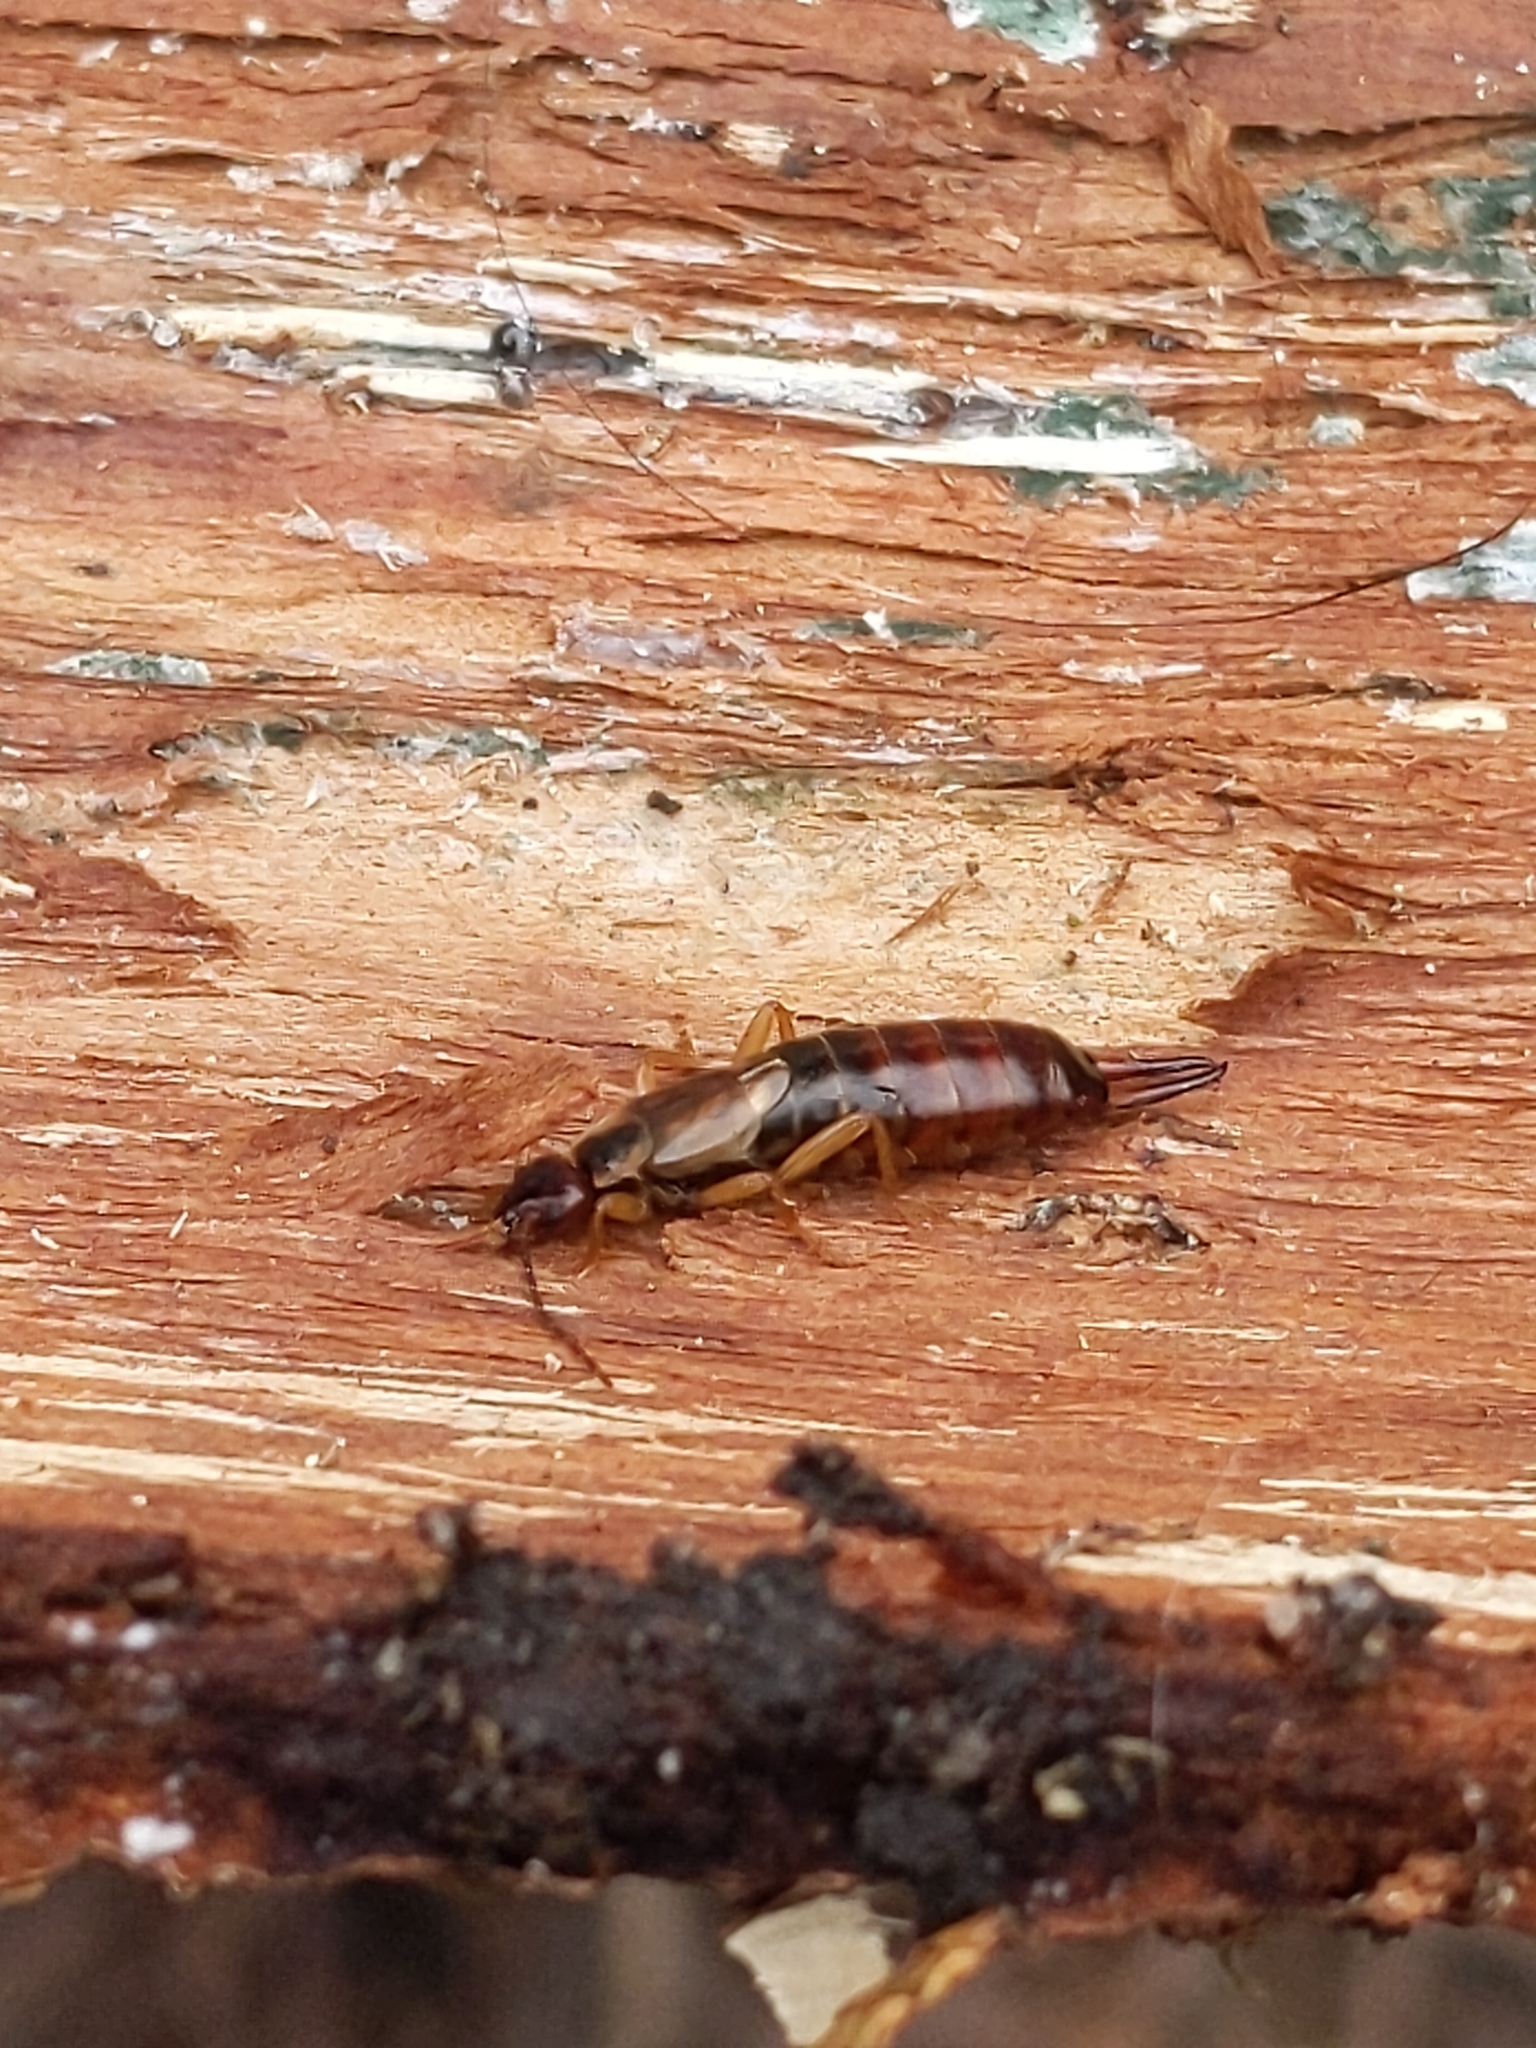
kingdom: Animalia
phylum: Arthropoda
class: Insecta
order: Dermaptera
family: Forficulidae
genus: Forficula
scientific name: Forficula
